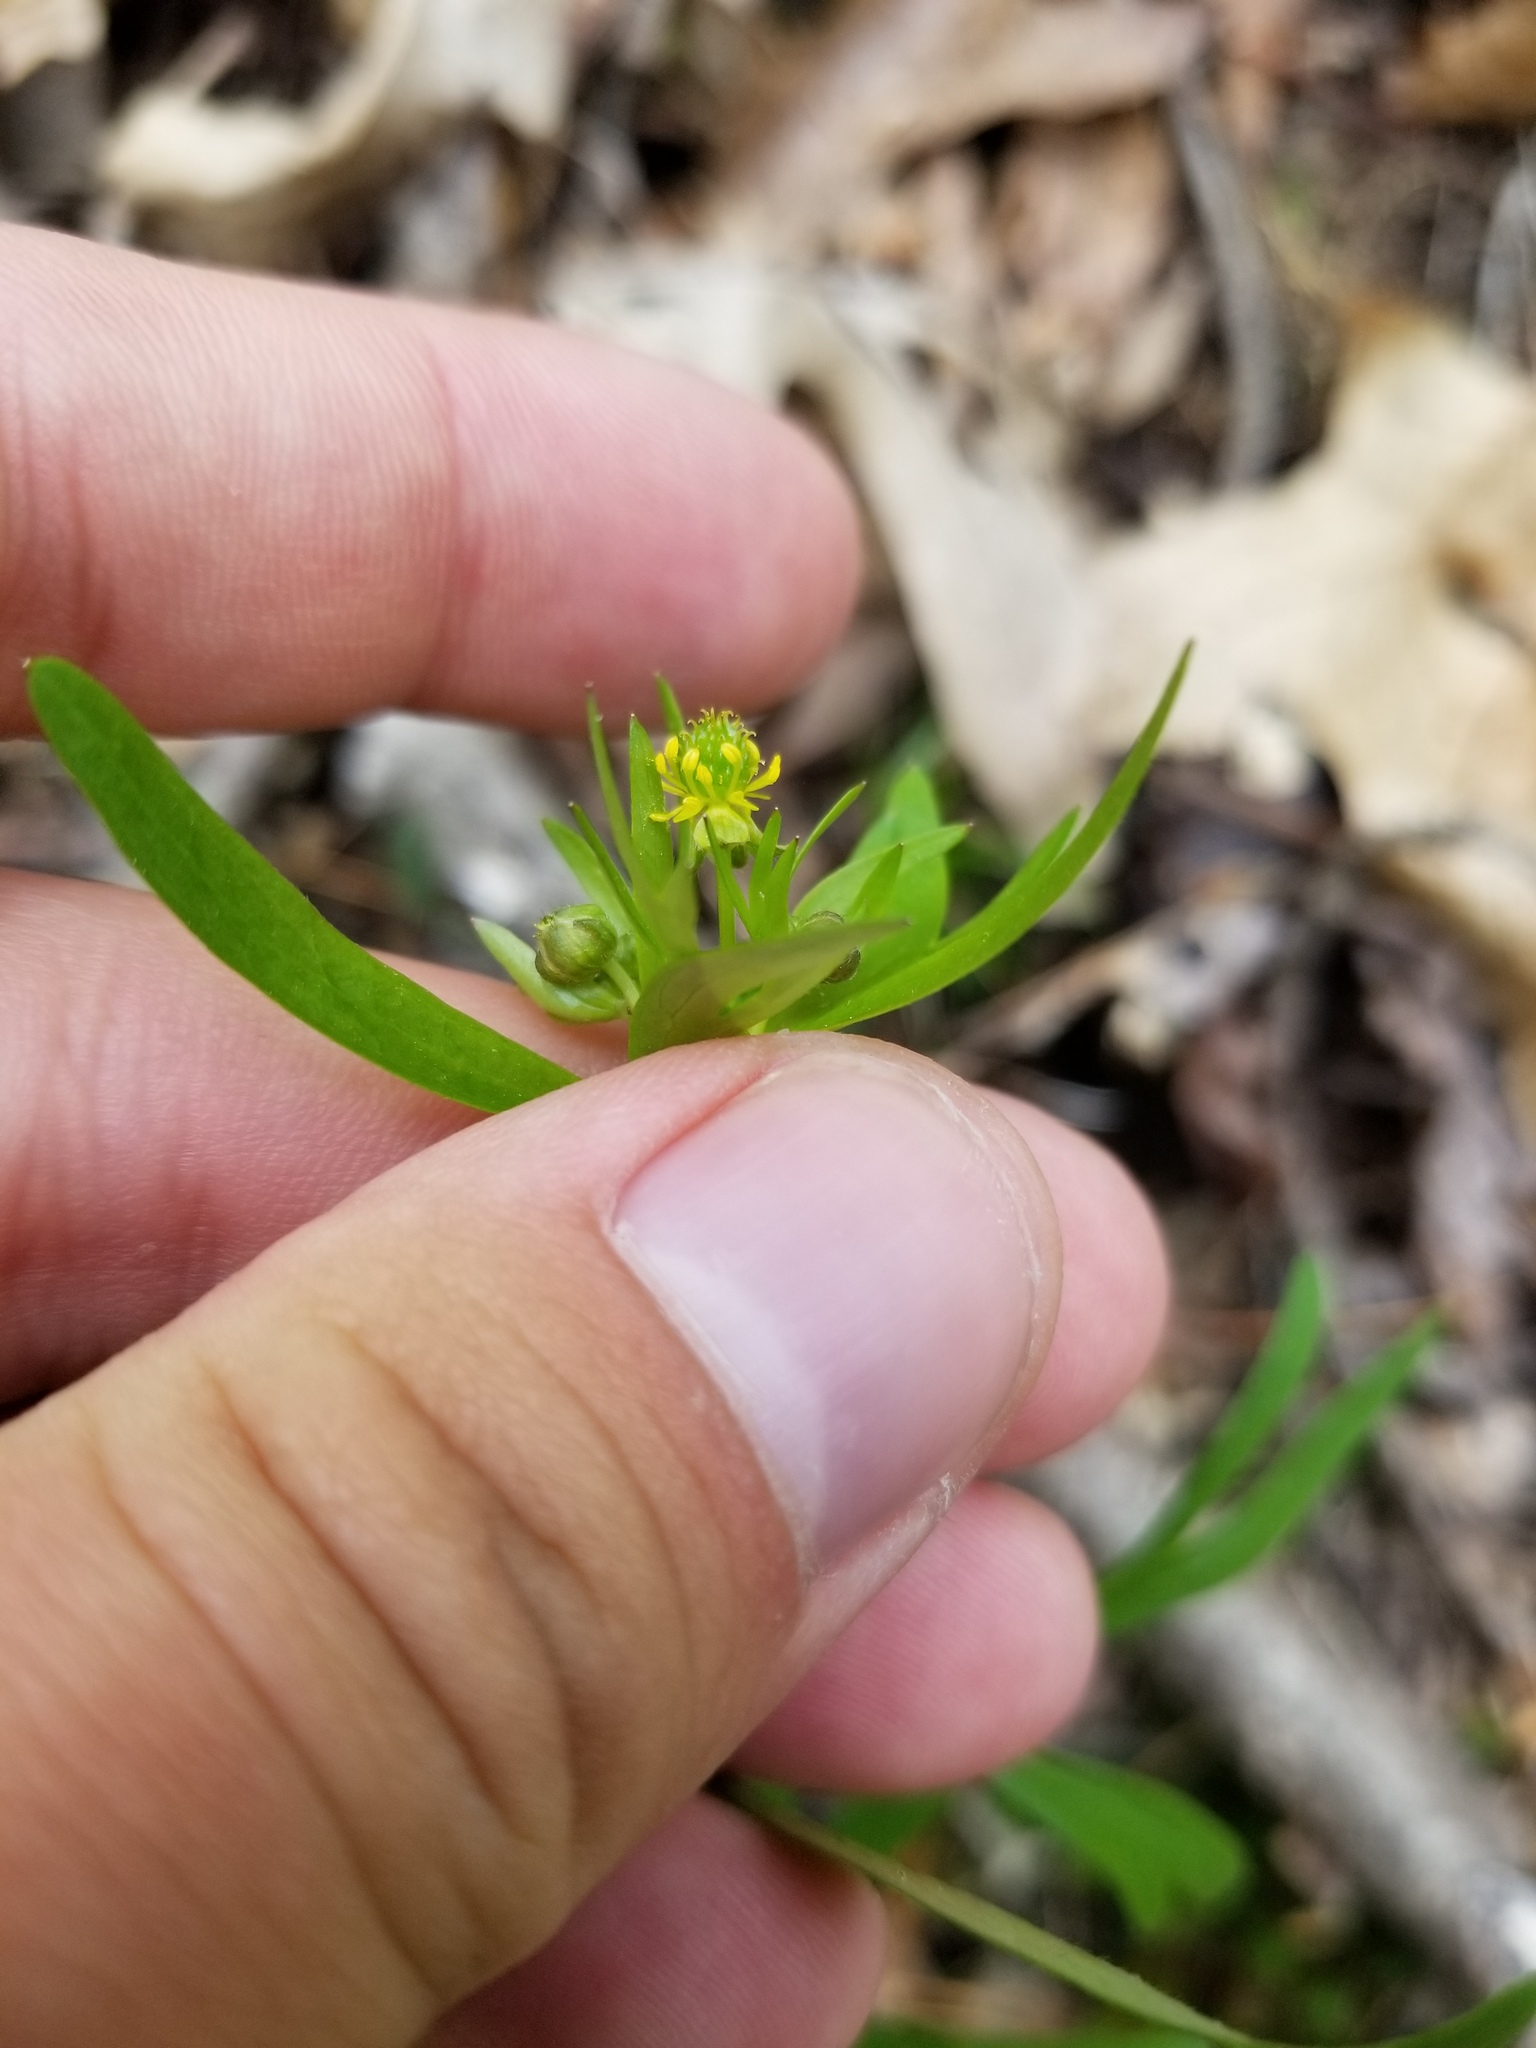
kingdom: Plantae
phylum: Tracheophyta
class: Magnoliopsida
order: Ranunculales
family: Ranunculaceae
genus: Ranunculus
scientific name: Ranunculus allegheniensis
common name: Allegheny mountain buttercup
